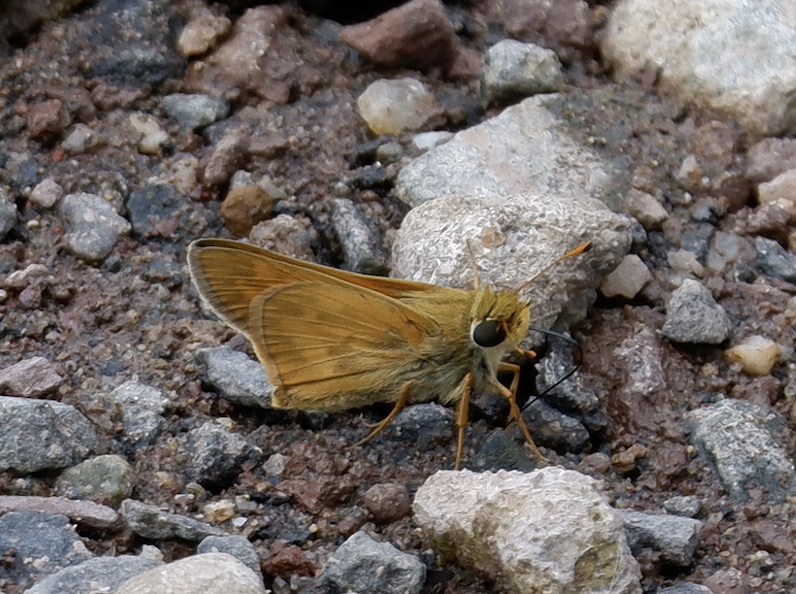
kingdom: Animalia
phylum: Arthropoda
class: Insecta
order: Lepidoptera
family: Hesperiidae
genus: Atalopedes
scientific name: Atalopedes
